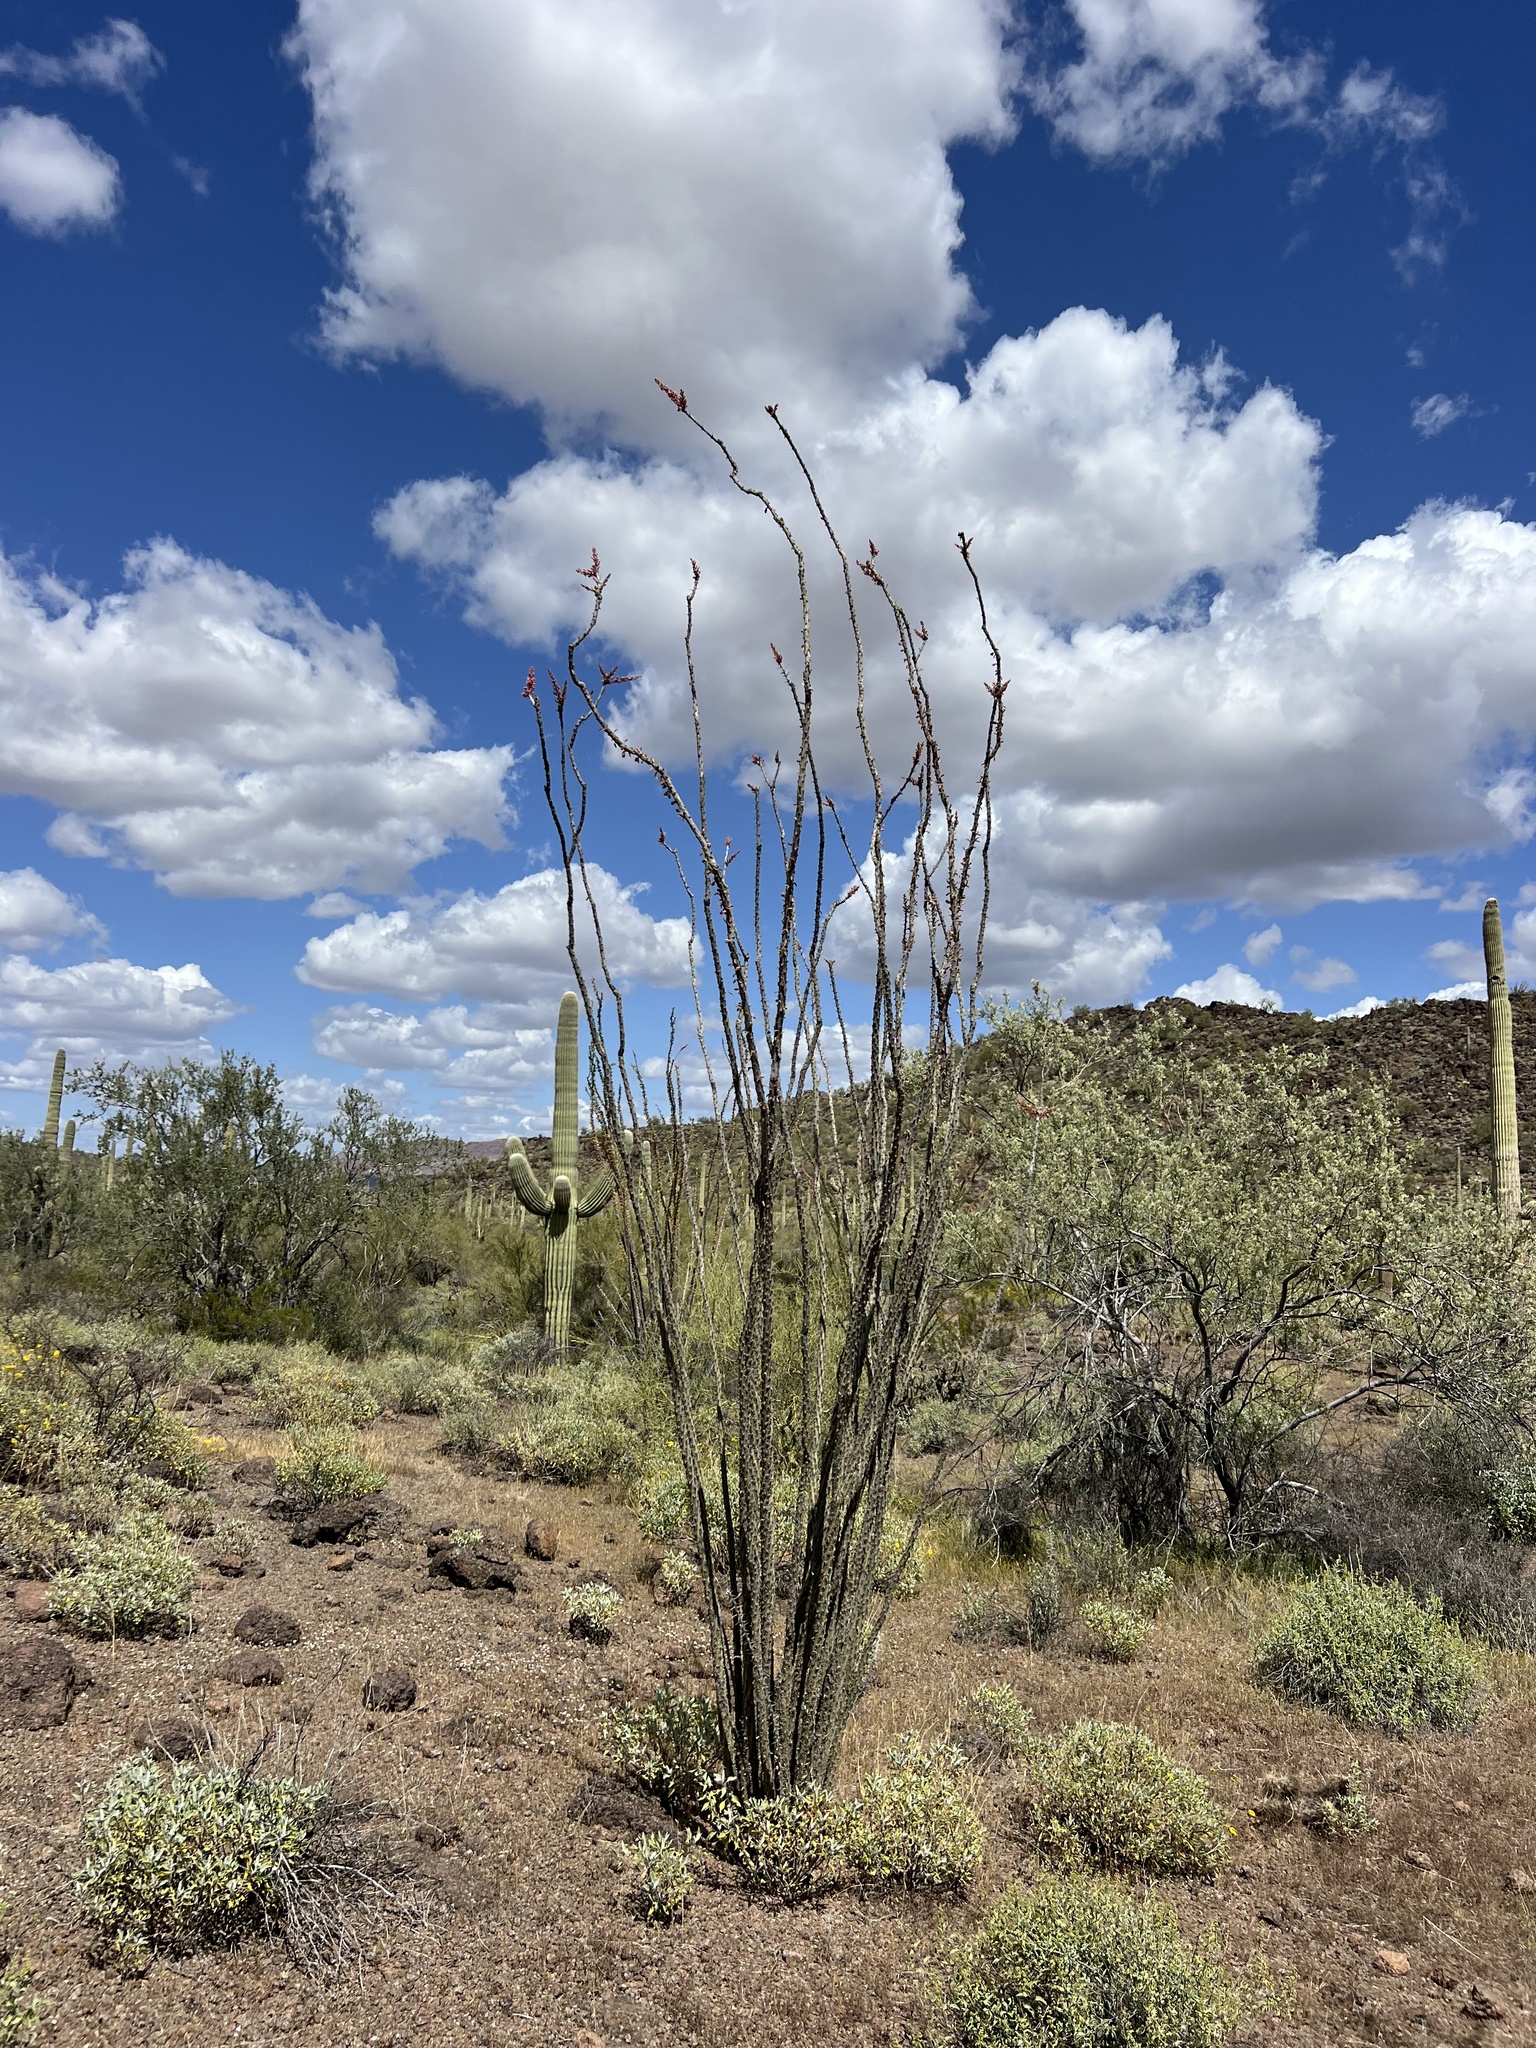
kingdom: Plantae
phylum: Tracheophyta
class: Magnoliopsida
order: Ericales
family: Fouquieriaceae
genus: Fouquieria
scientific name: Fouquieria splendens
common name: Vine-cactus
